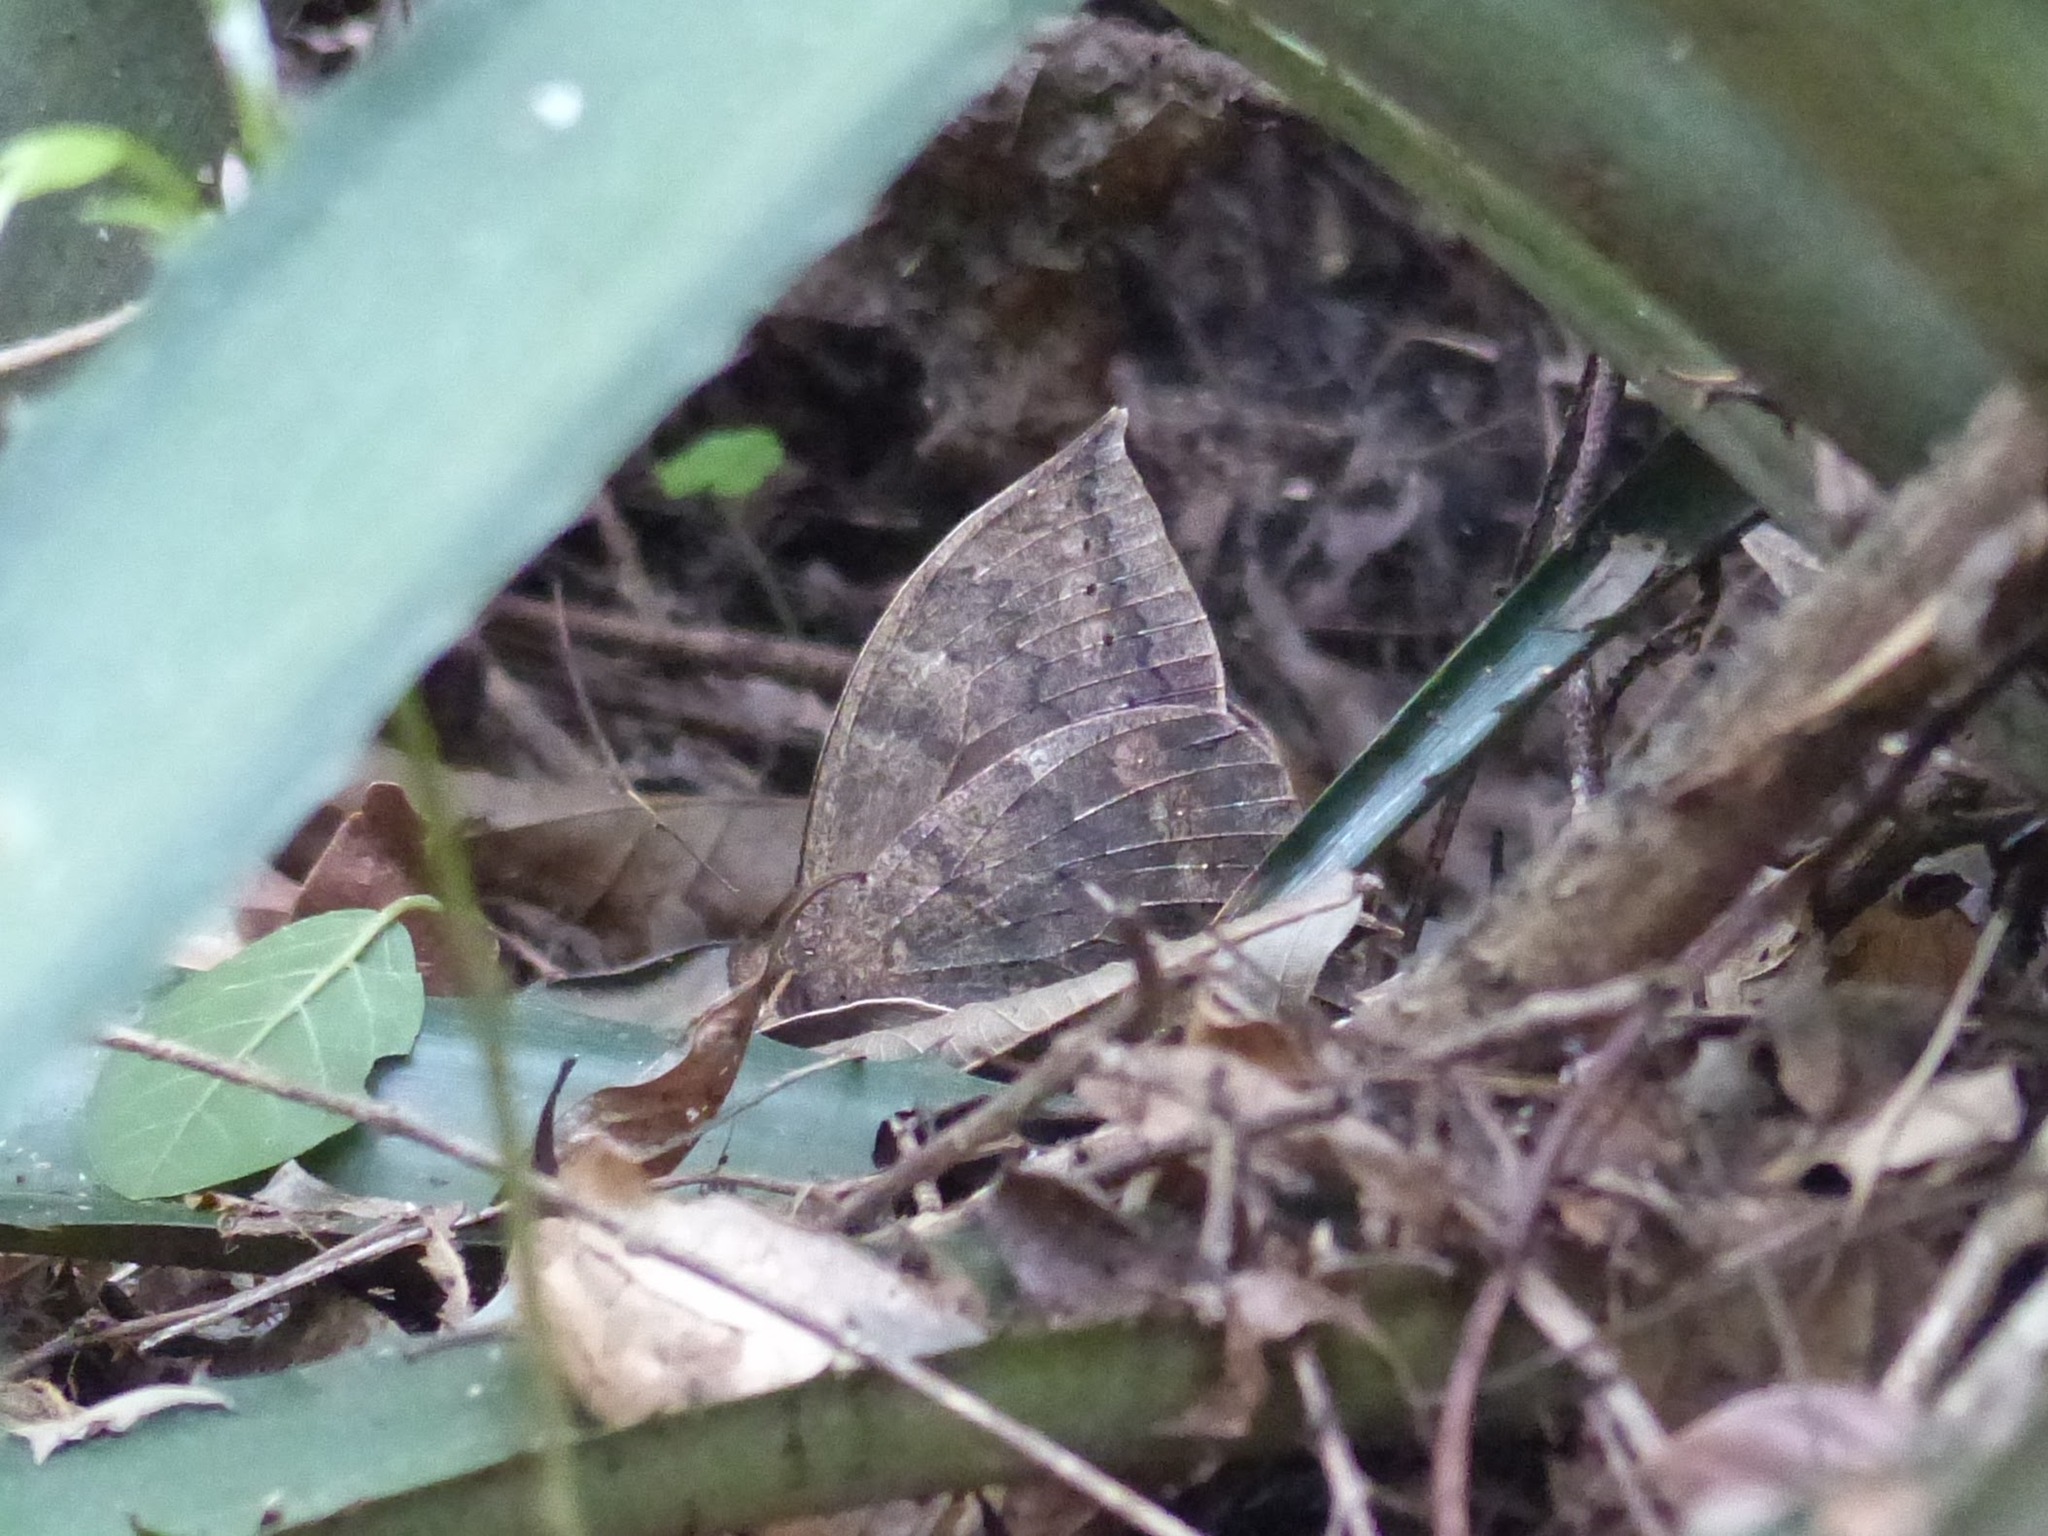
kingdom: Animalia
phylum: Arthropoda
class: Insecta
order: Lepidoptera
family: Nymphalidae
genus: Taygetis
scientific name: Taygetis larua
